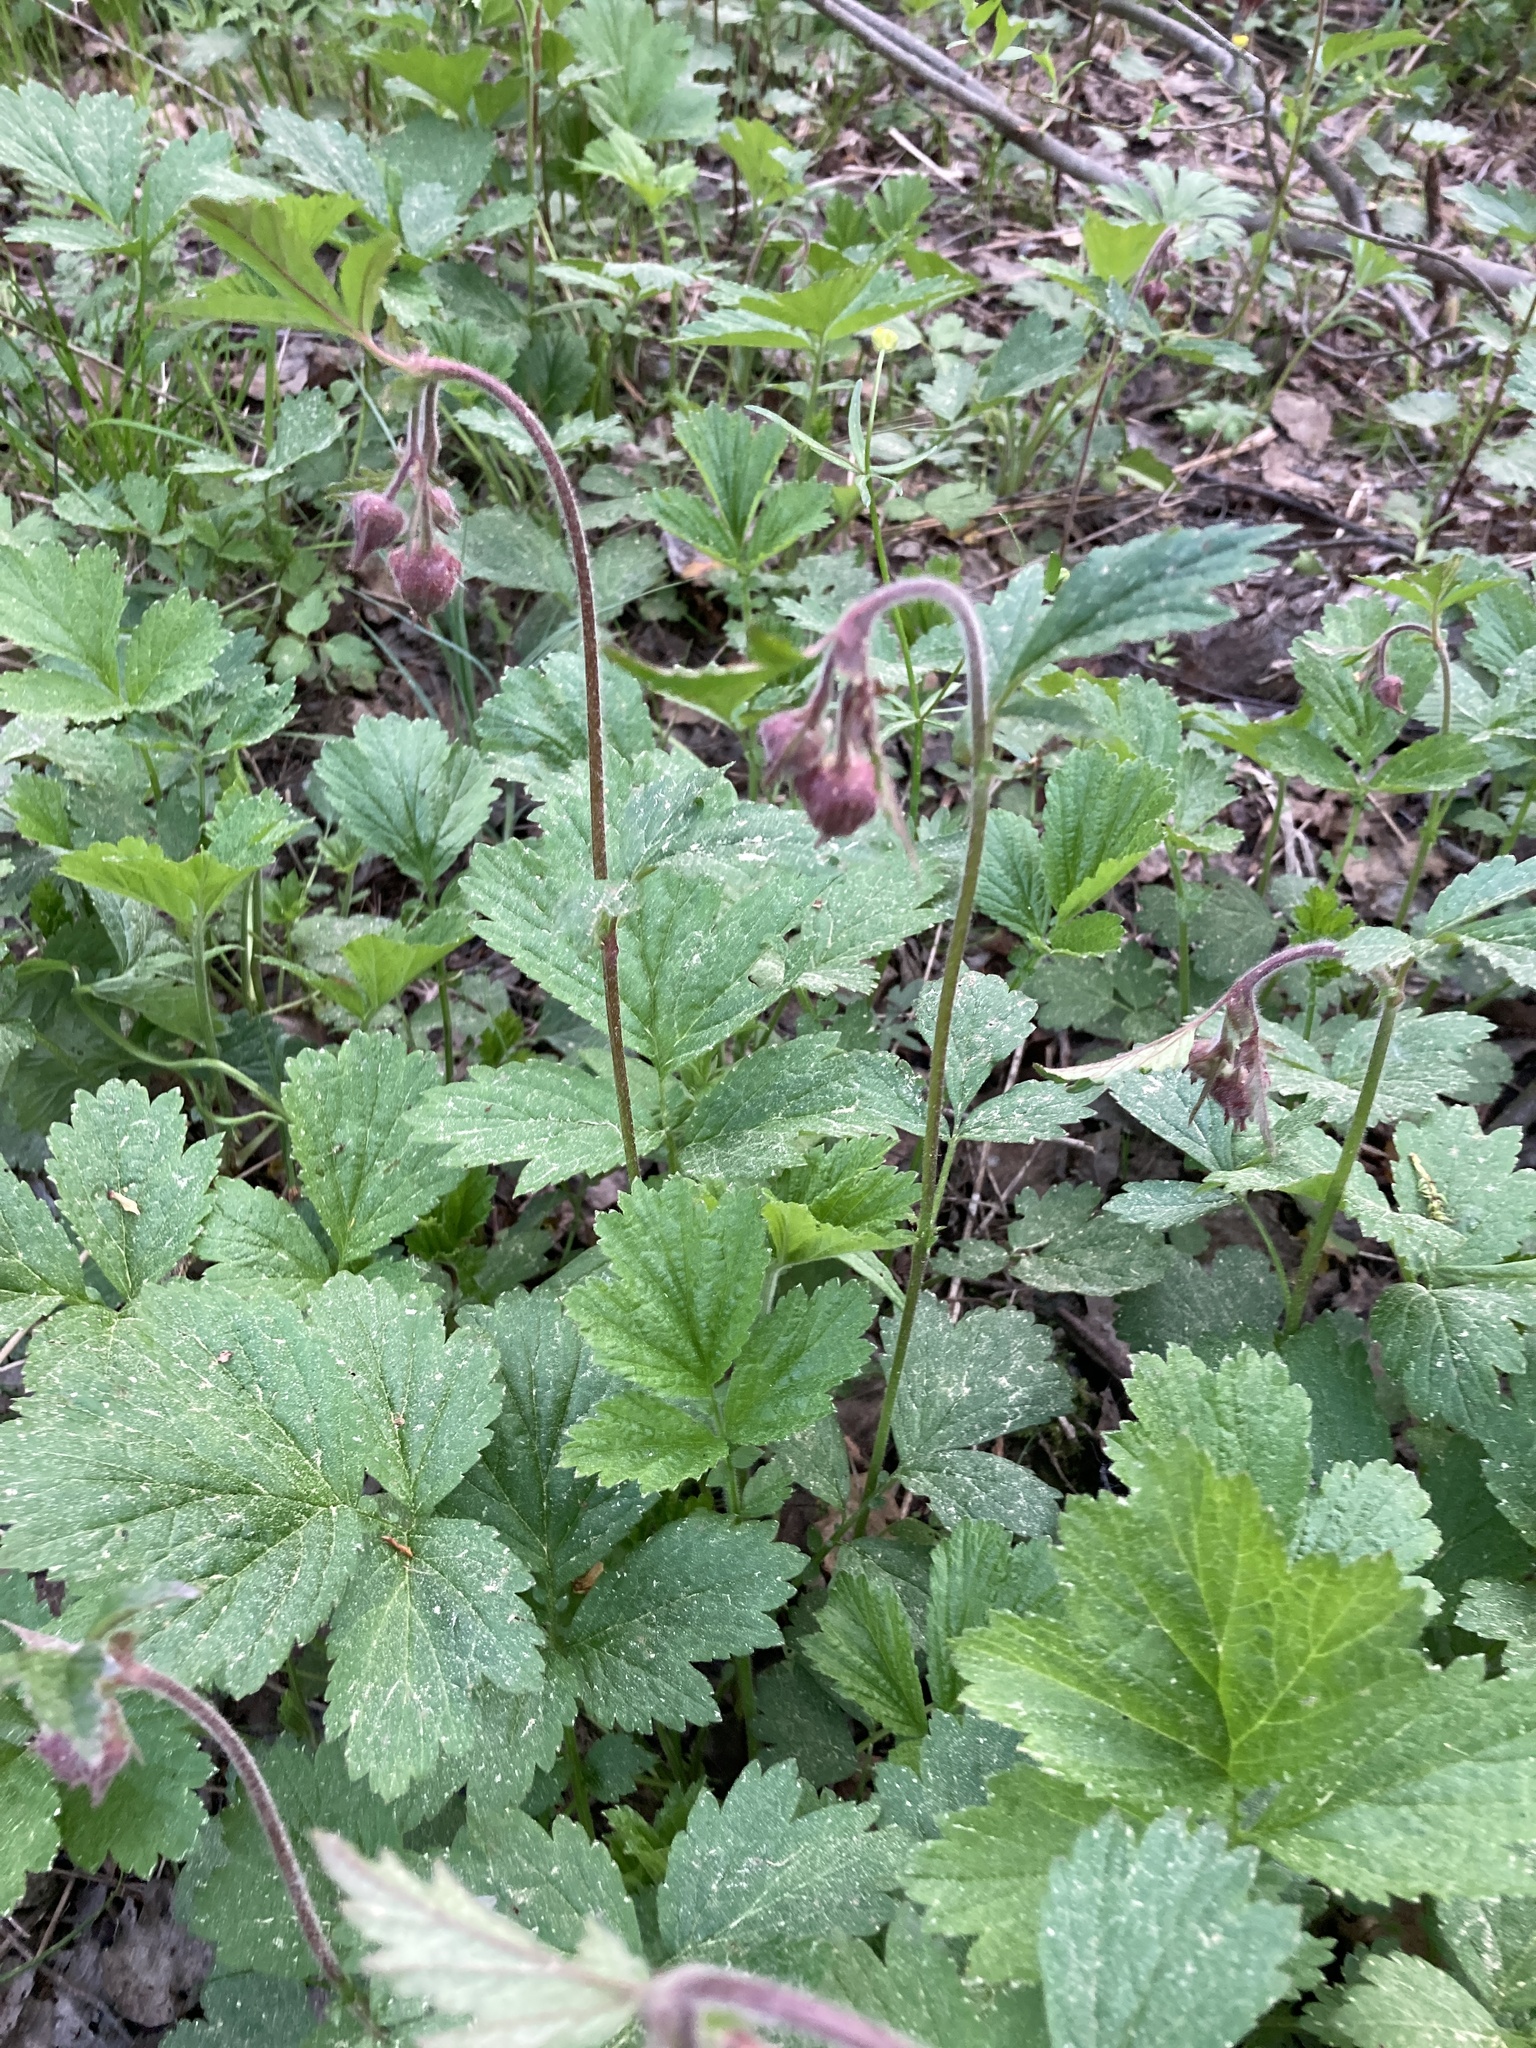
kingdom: Plantae
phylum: Tracheophyta
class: Magnoliopsida
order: Rosales
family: Rosaceae
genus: Geum
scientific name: Geum rivale
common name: Water avens
